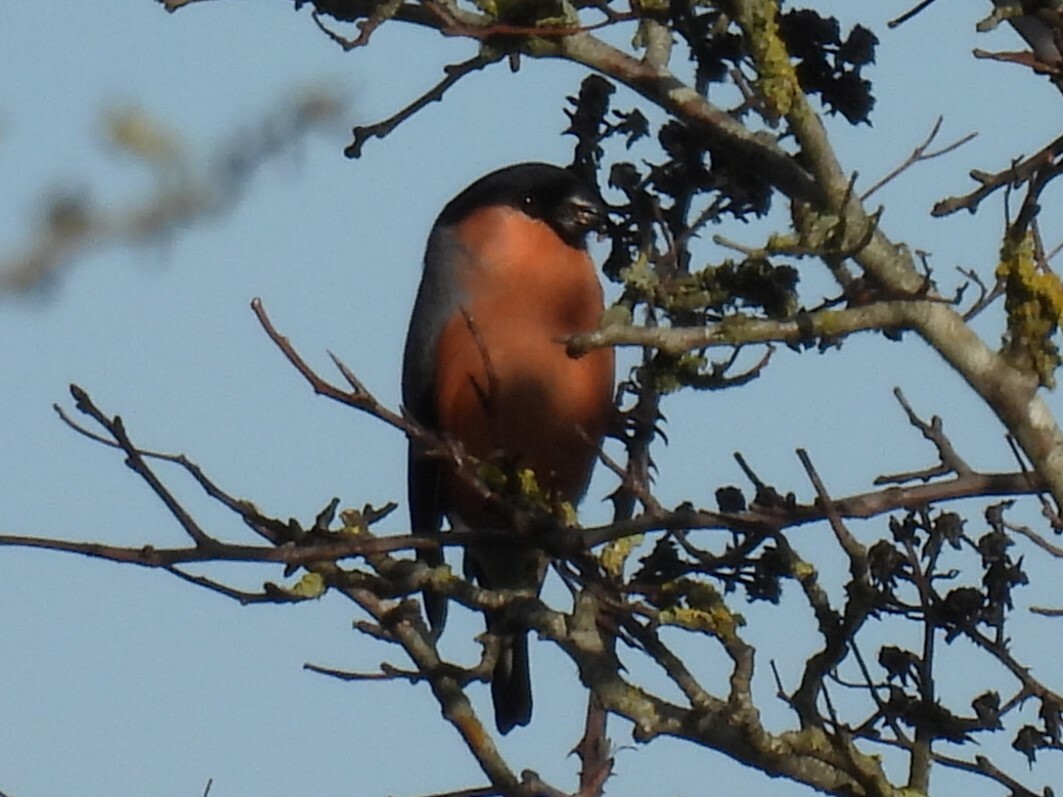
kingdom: Animalia
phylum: Chordata
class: Aves
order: Passeriformes
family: Fringillidae
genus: Pyrrhula
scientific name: Pyrrhula pyrrhula
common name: Eurasian bullfinch
